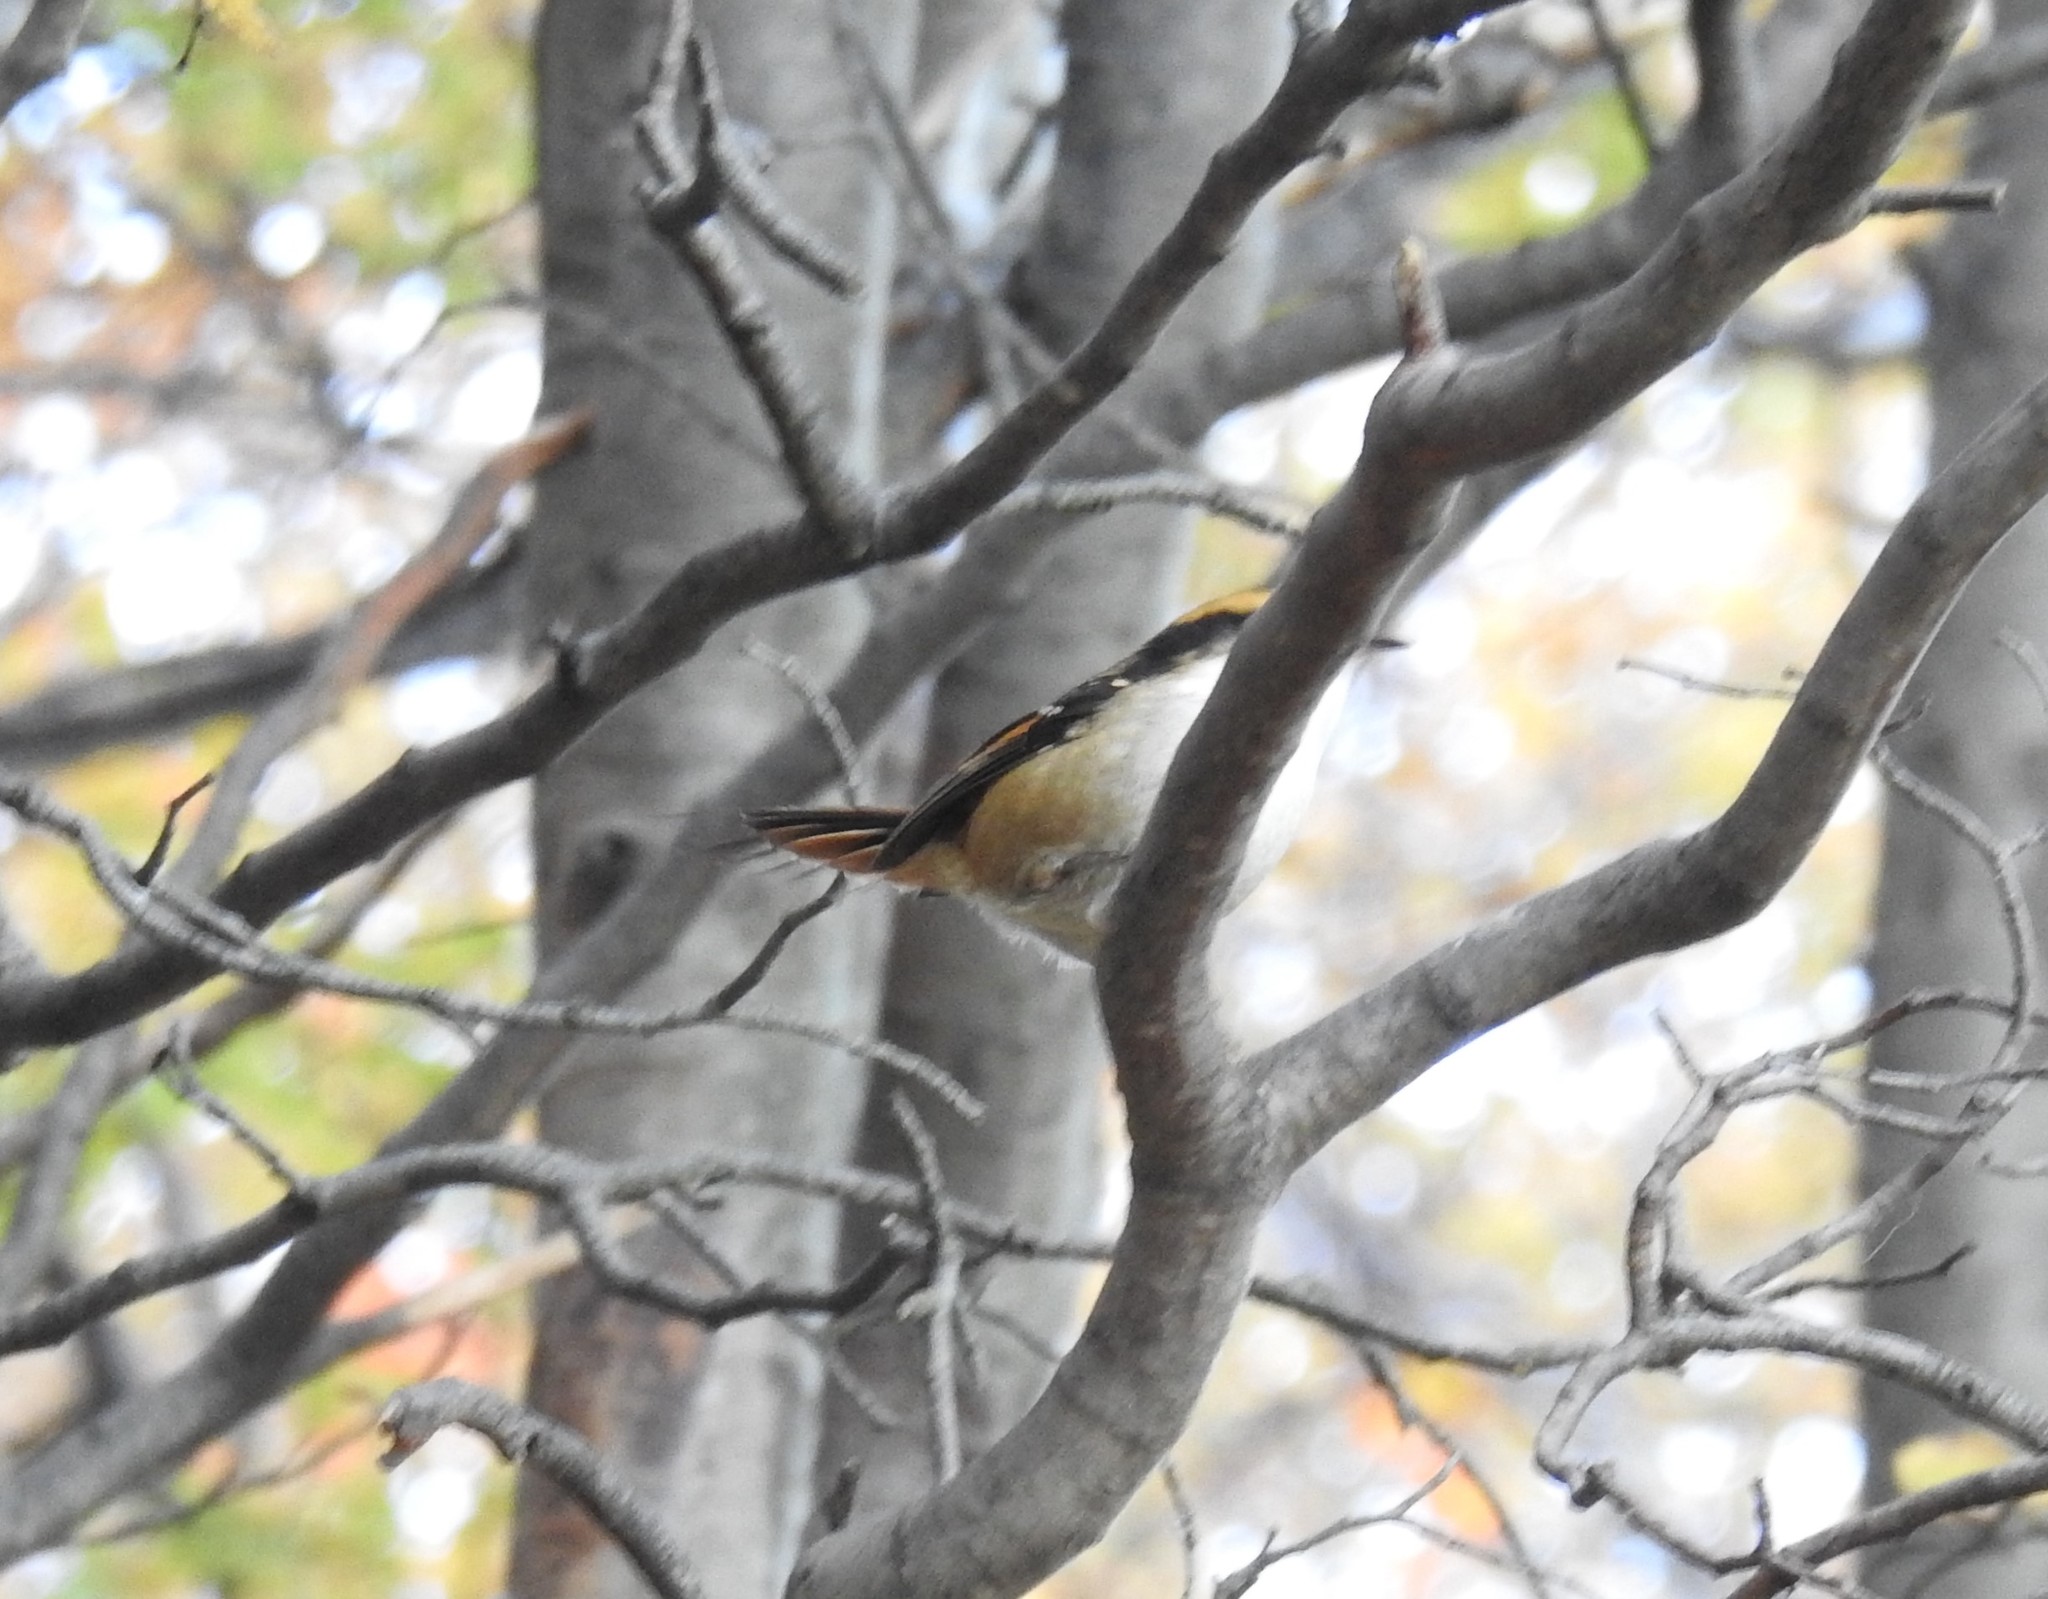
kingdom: Animalia
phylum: Chordata
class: Aves
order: Passeriformes
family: Furnariidae
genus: Aphrastura
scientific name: Aphrastura spinicauda
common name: Thorn-tailed rayadito
